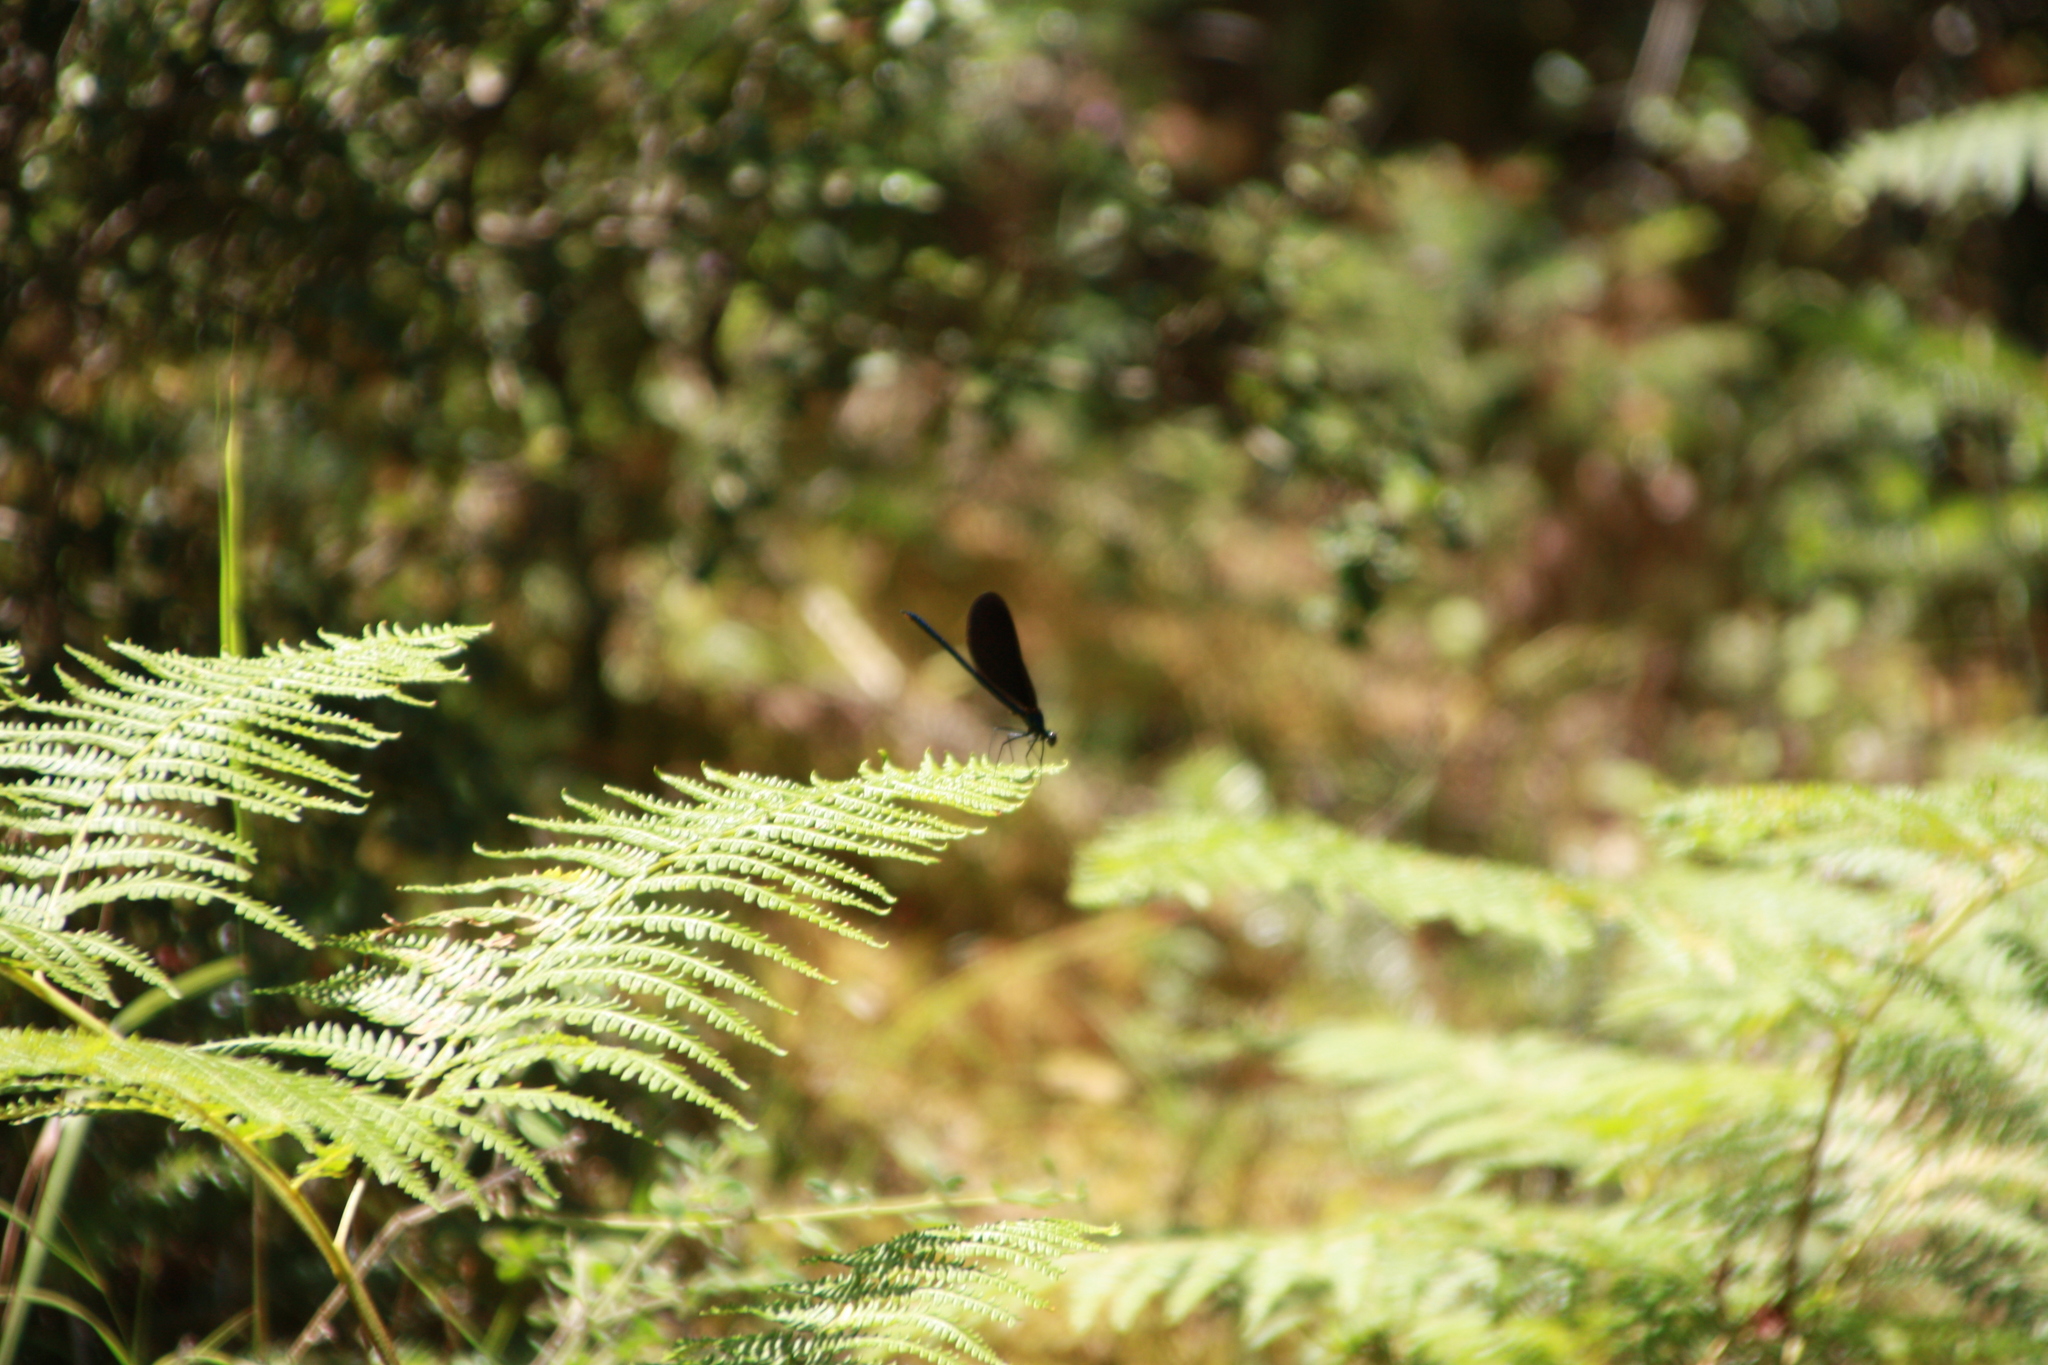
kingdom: Animalia
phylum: Arthropoda
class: Insecta
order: Odonata
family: Calopterygidae
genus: Calopteryx
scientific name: Calopteryx virgo
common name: Beautiful demoiselle
